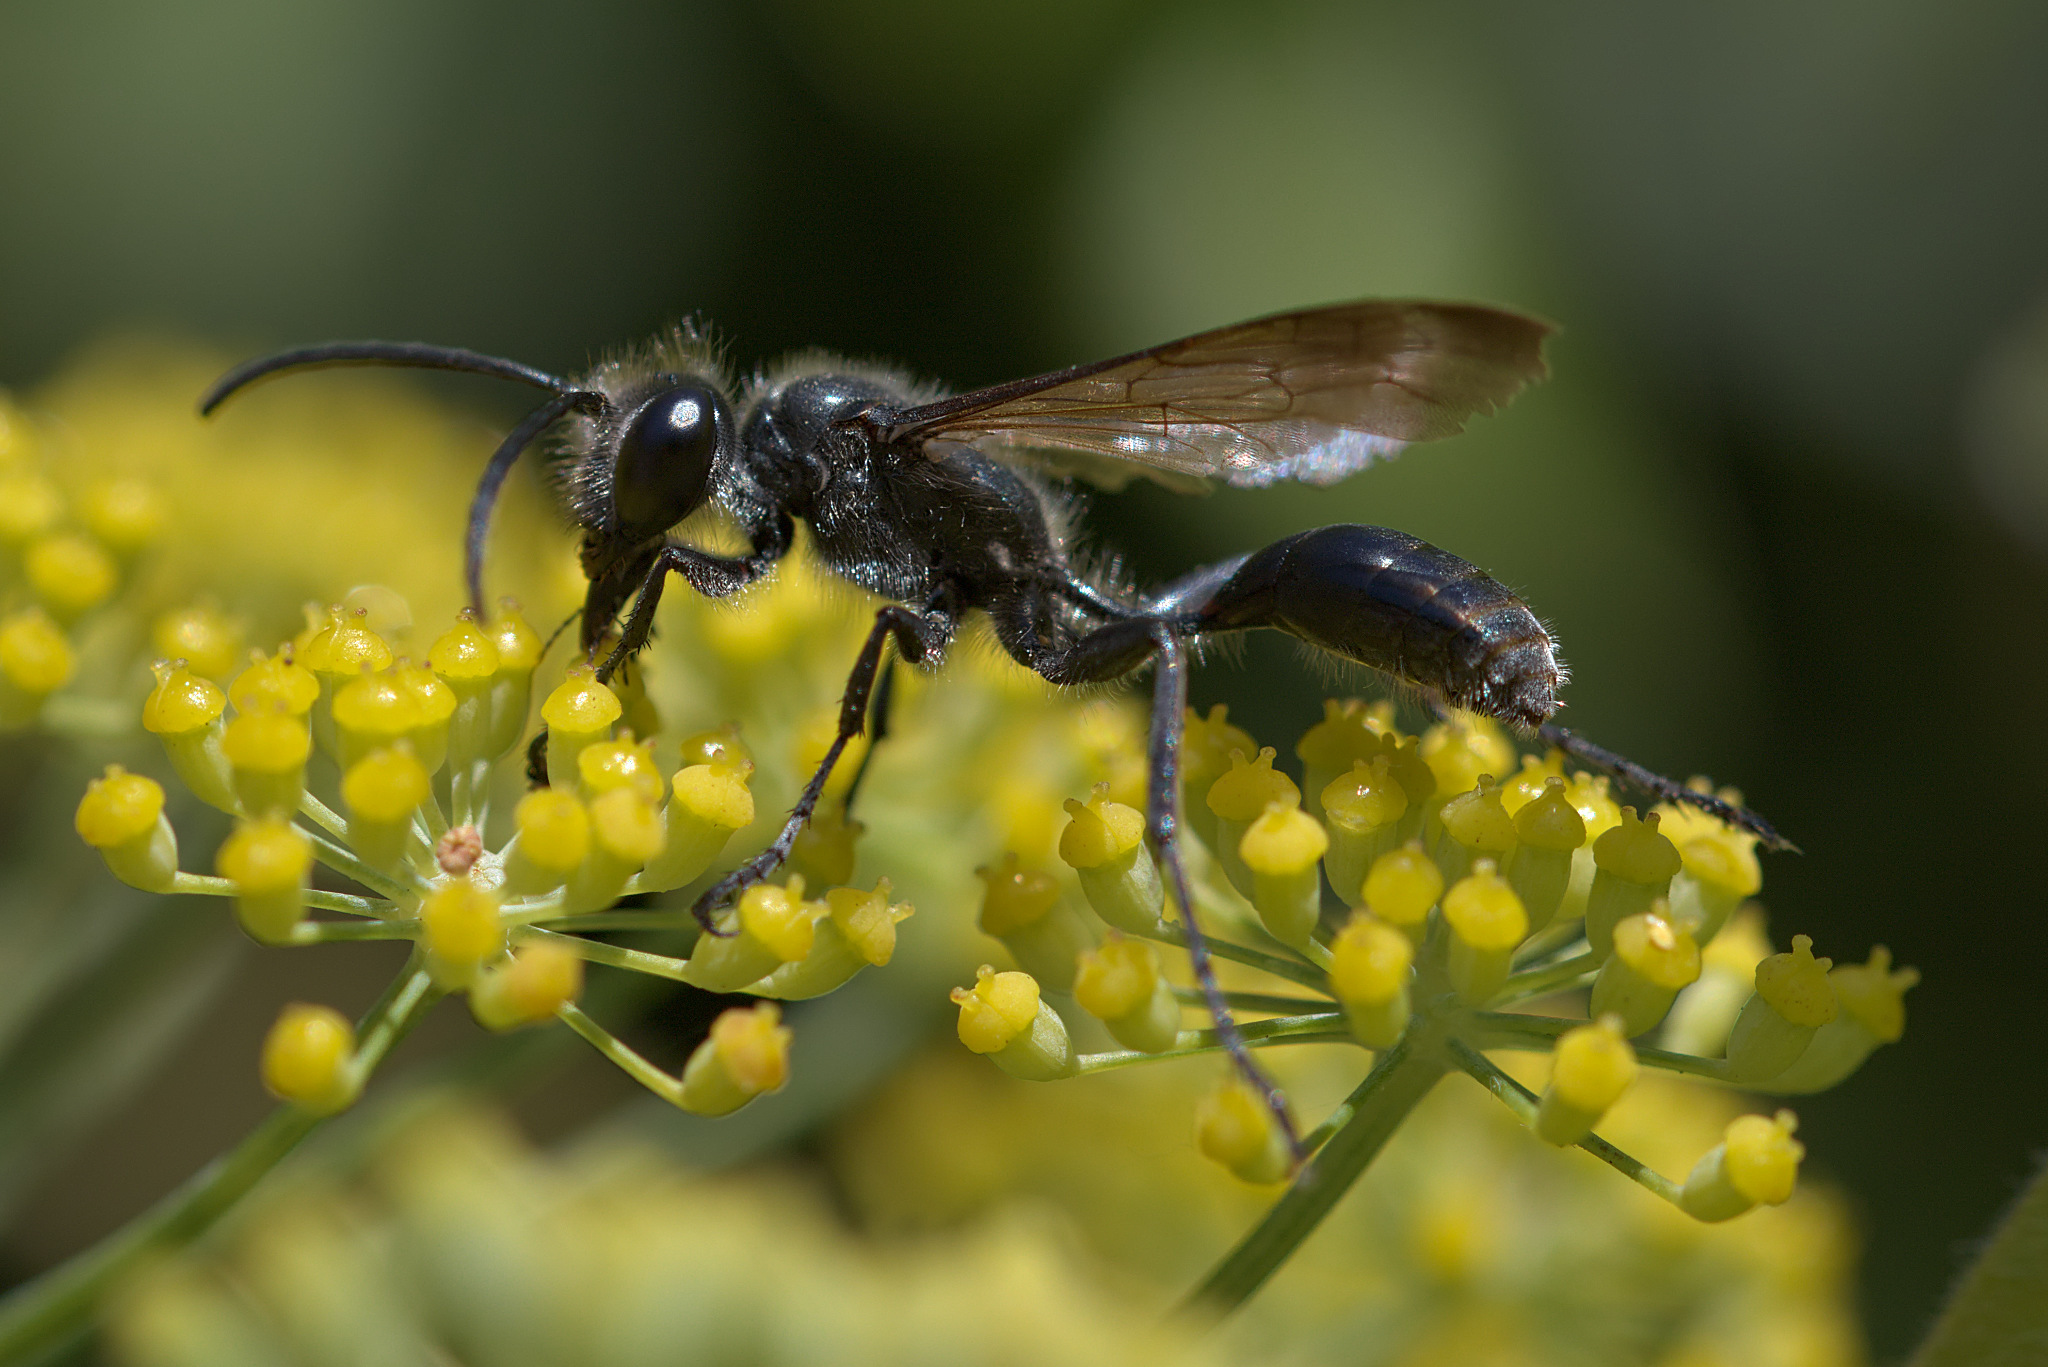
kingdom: Animalia
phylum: Arthropoda
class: Insecta
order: Hymenoptera
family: Sphecidae
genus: Isodontia
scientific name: Isodontia mexicana
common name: Mud dauber
